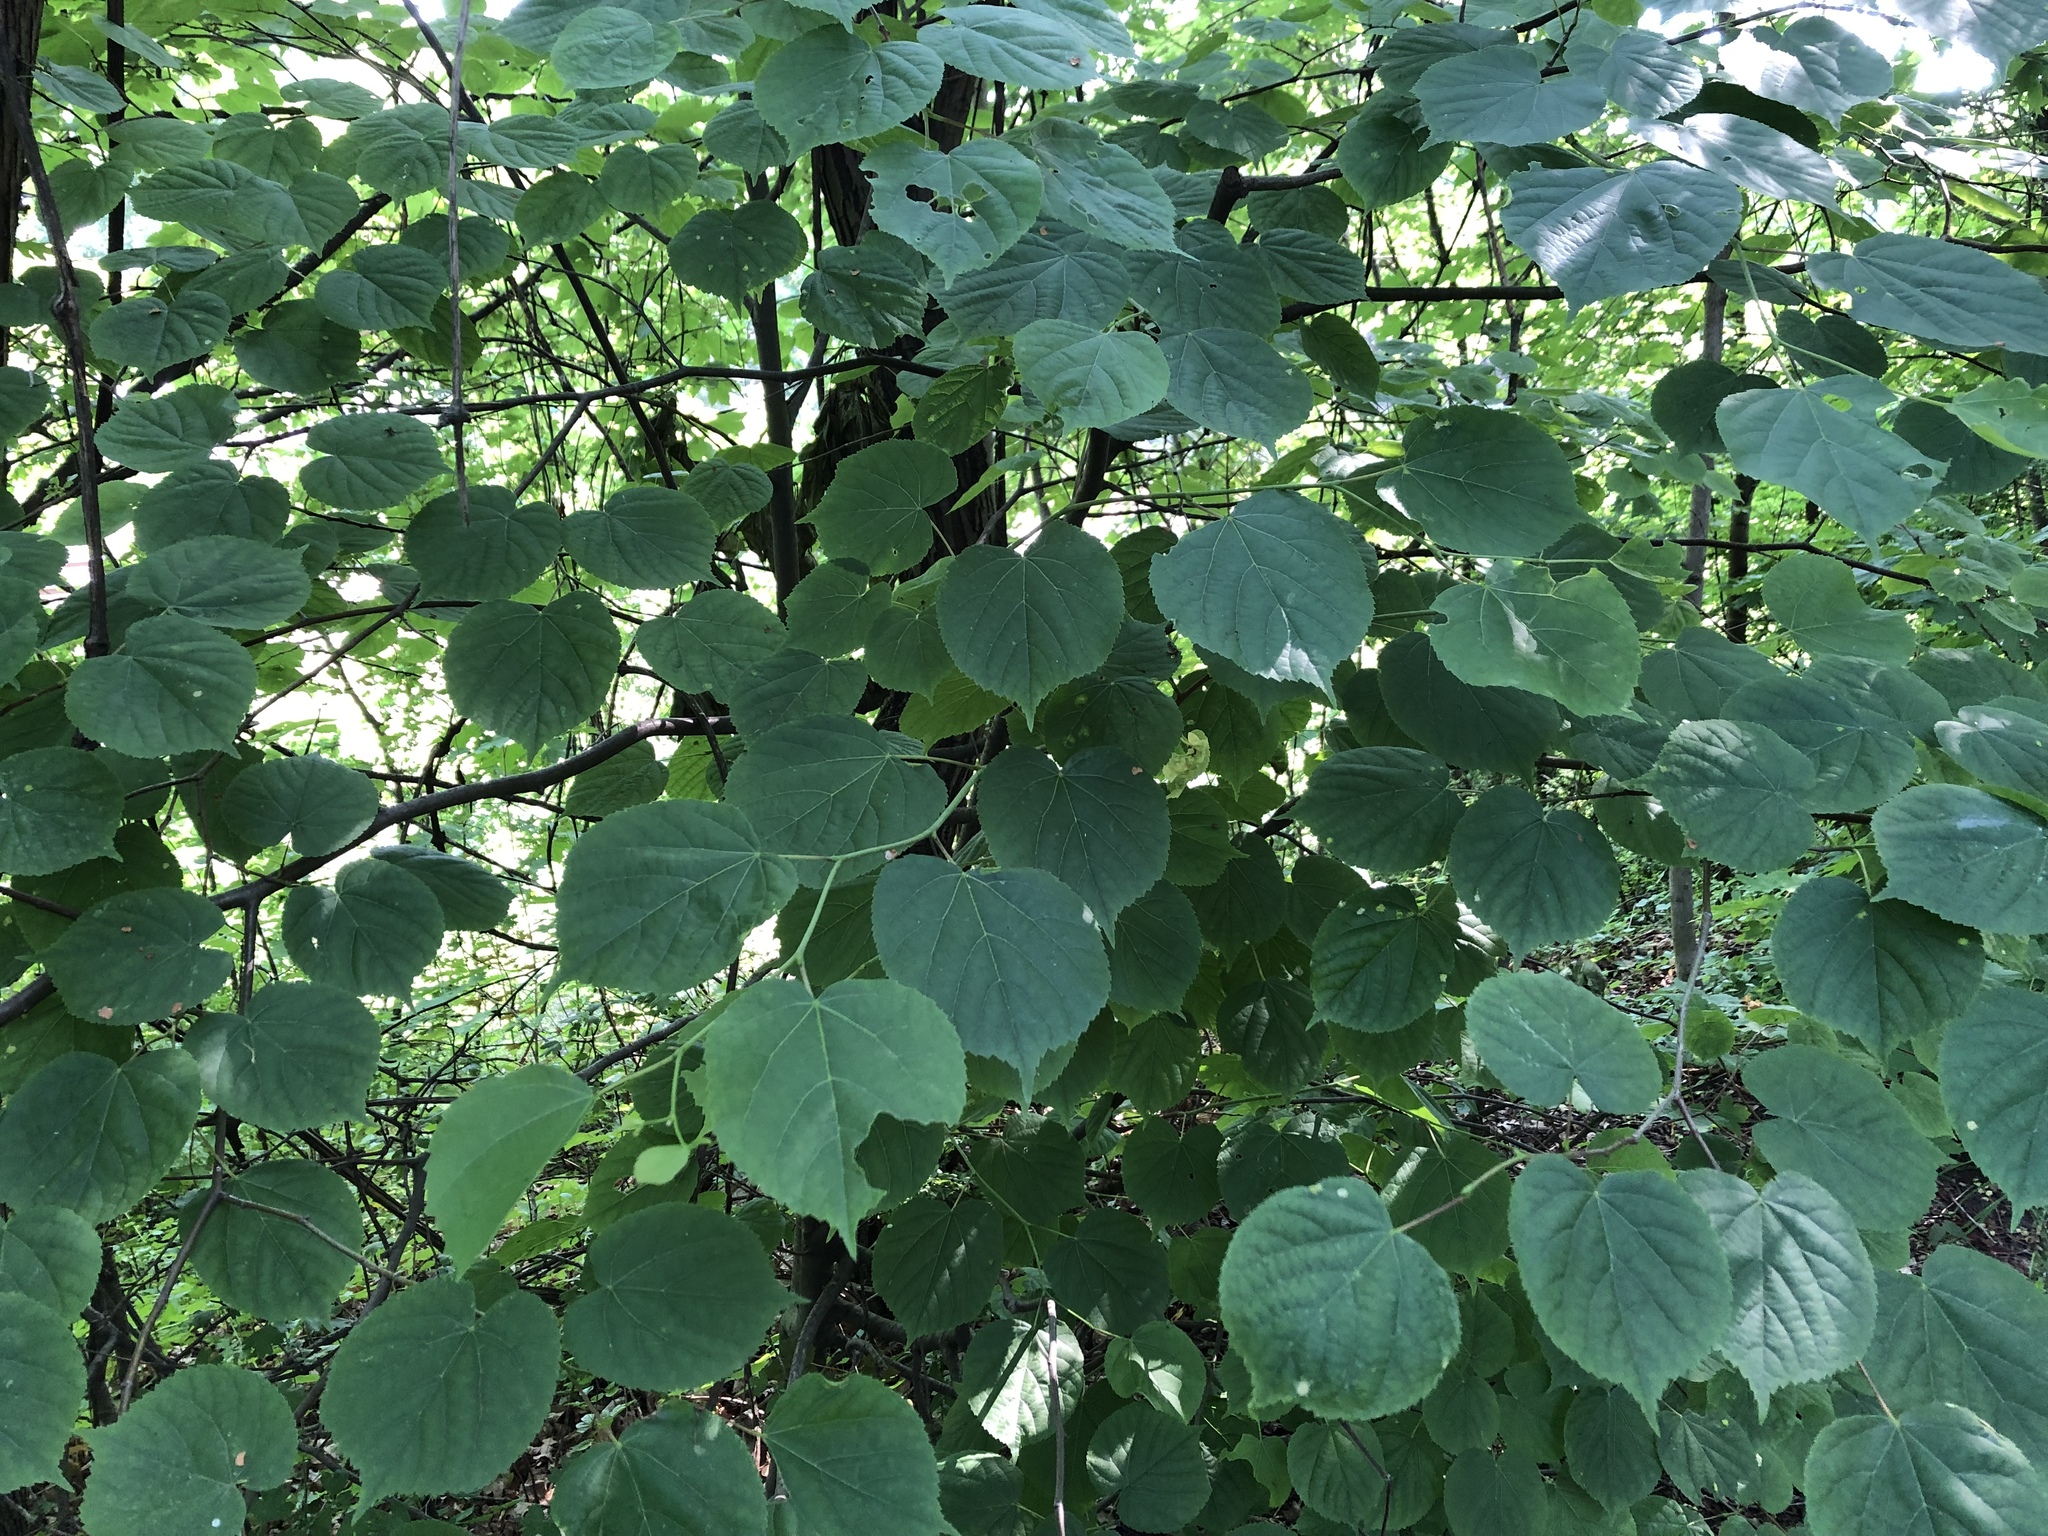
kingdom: Plantae
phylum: Tracheophyta
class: Magnoliopsida
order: Malvales
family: Malvaceae
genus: Tilia
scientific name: Tilia cordata
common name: Small-leaved lime
